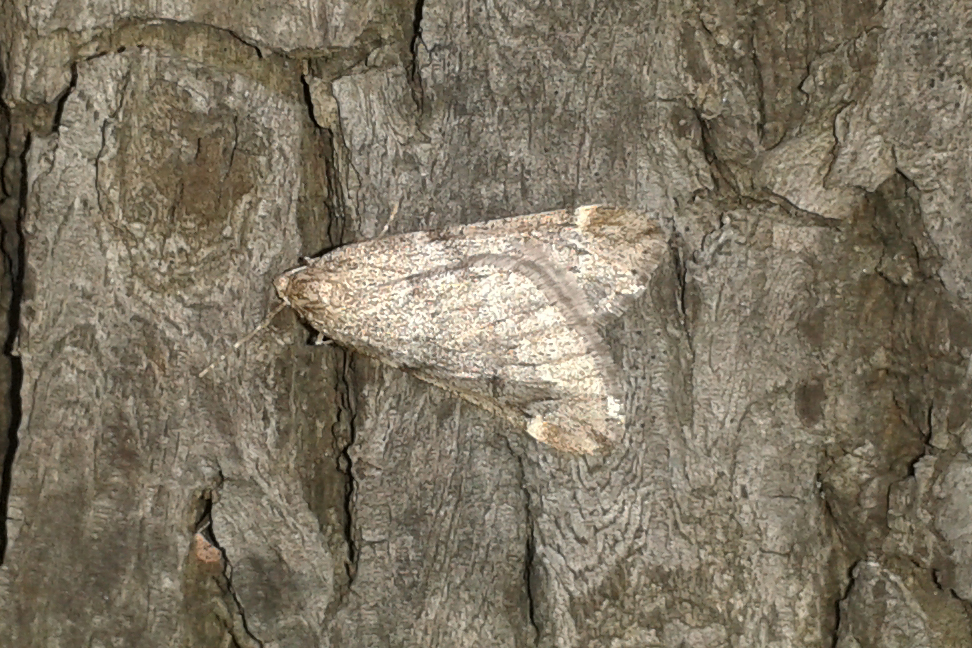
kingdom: Animalia
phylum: Arthropoda
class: Insecta
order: Lepidoptera
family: Geometridae
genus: Alsophila
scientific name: Alsophila aescularia
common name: March moth
